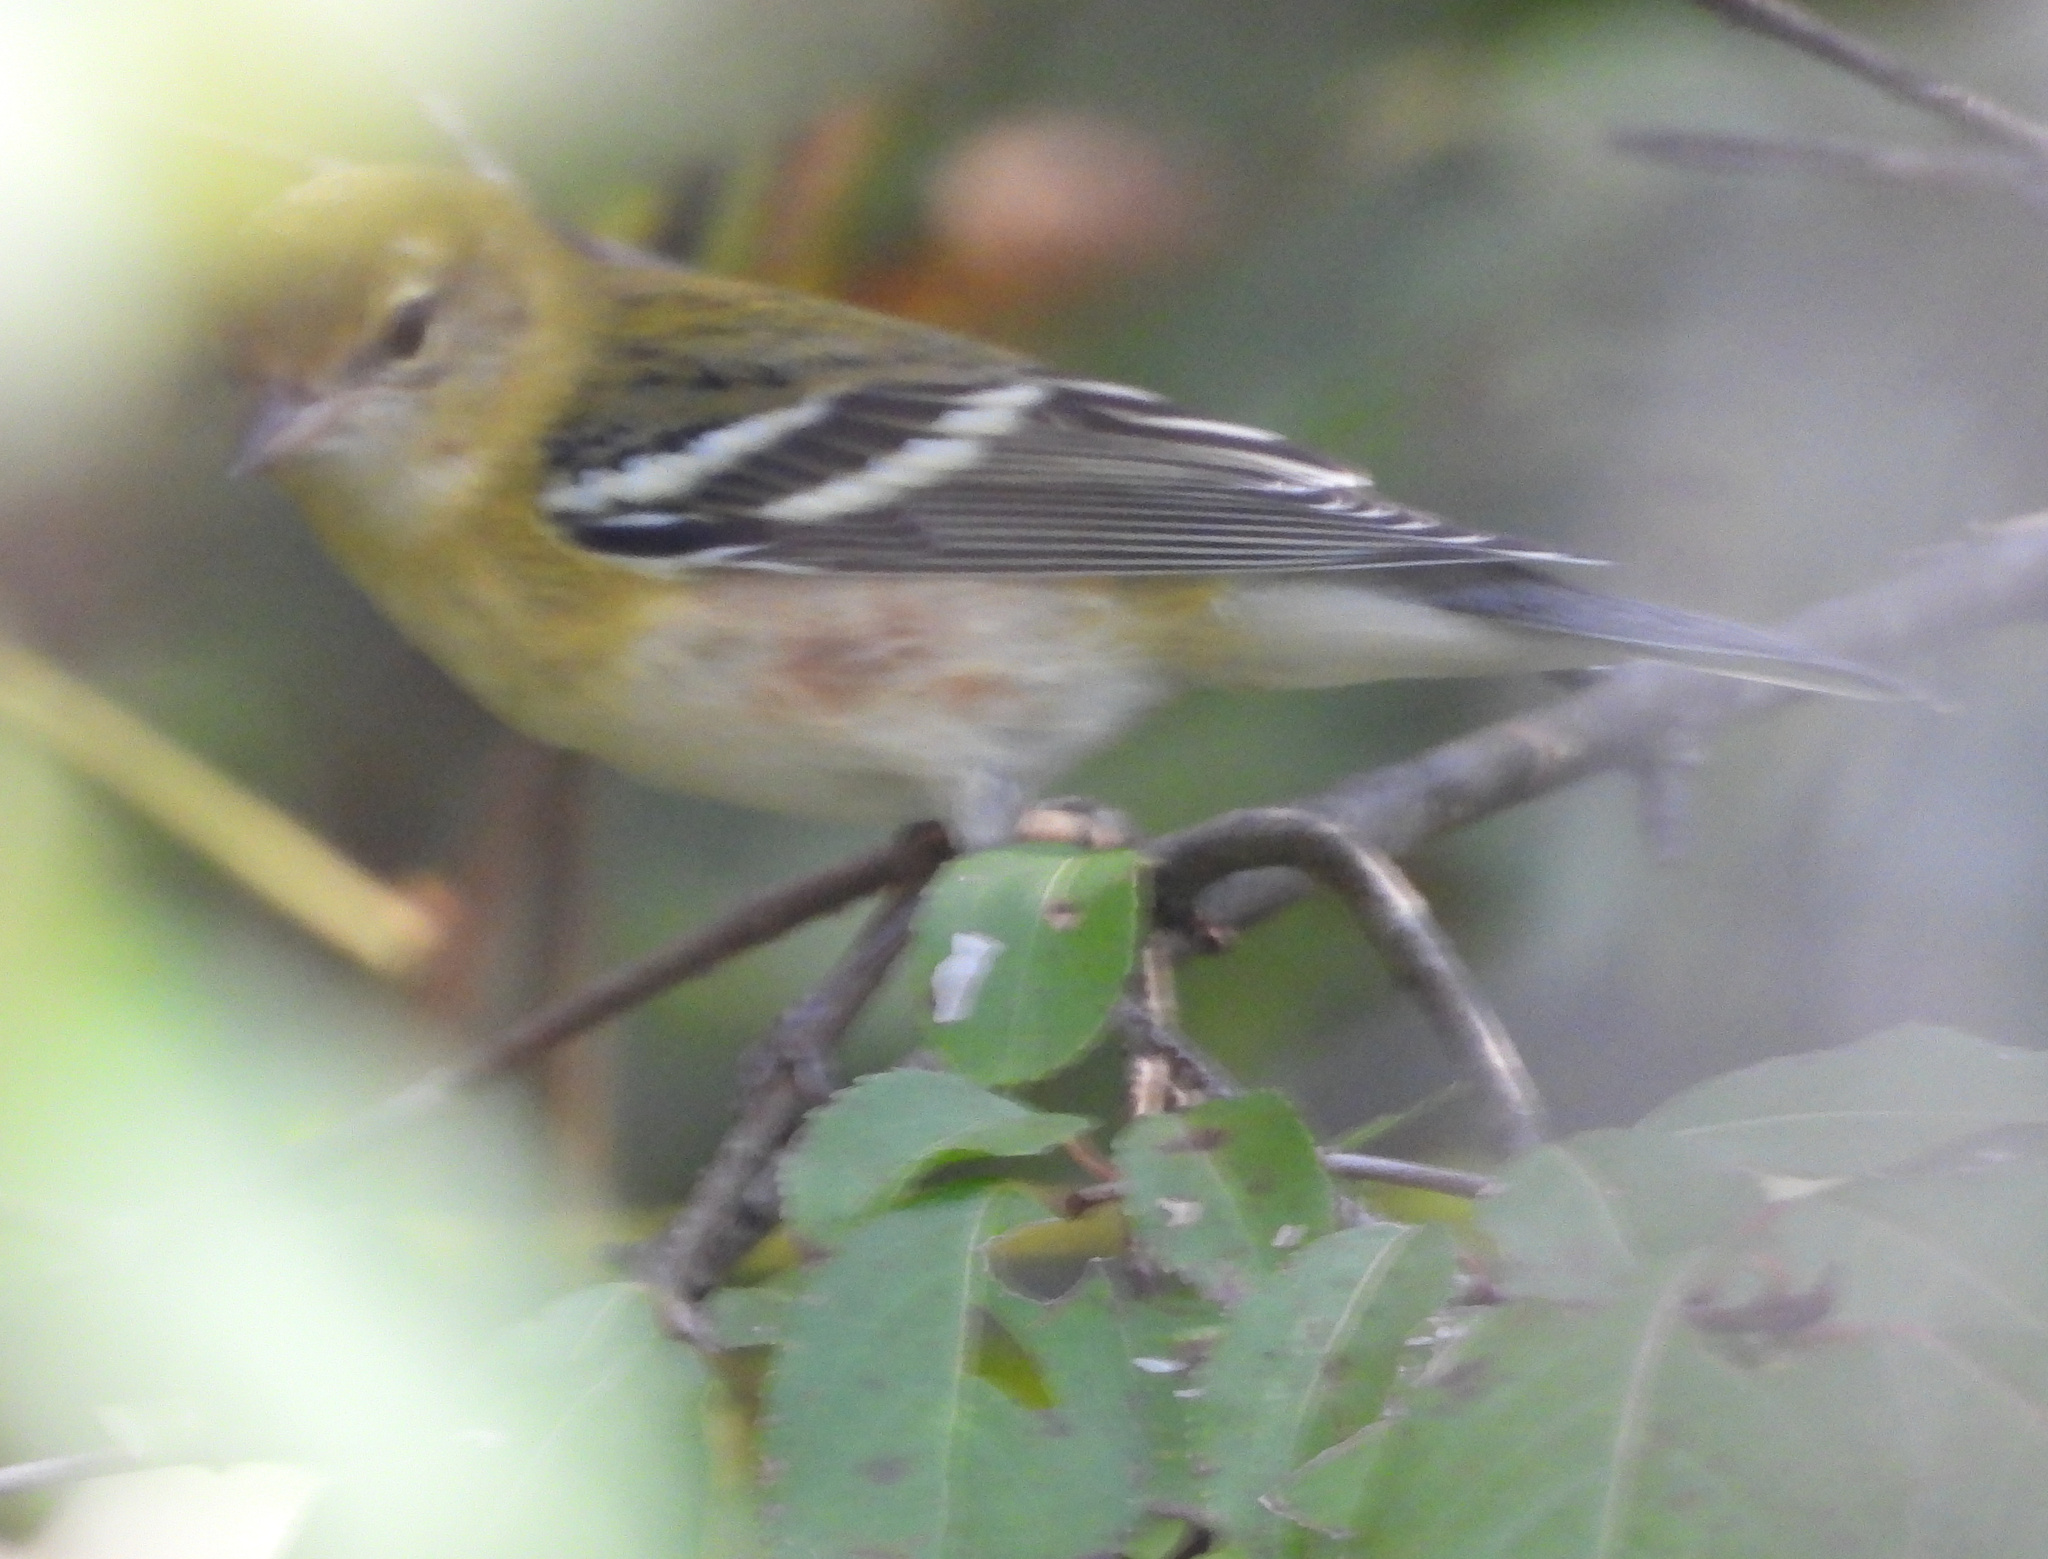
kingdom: Animalia
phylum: Chordata
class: Aves
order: Passeriformes
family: Parulidae
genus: Setophaga
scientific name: Setophaga castanea
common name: Bay-breasted warbler
